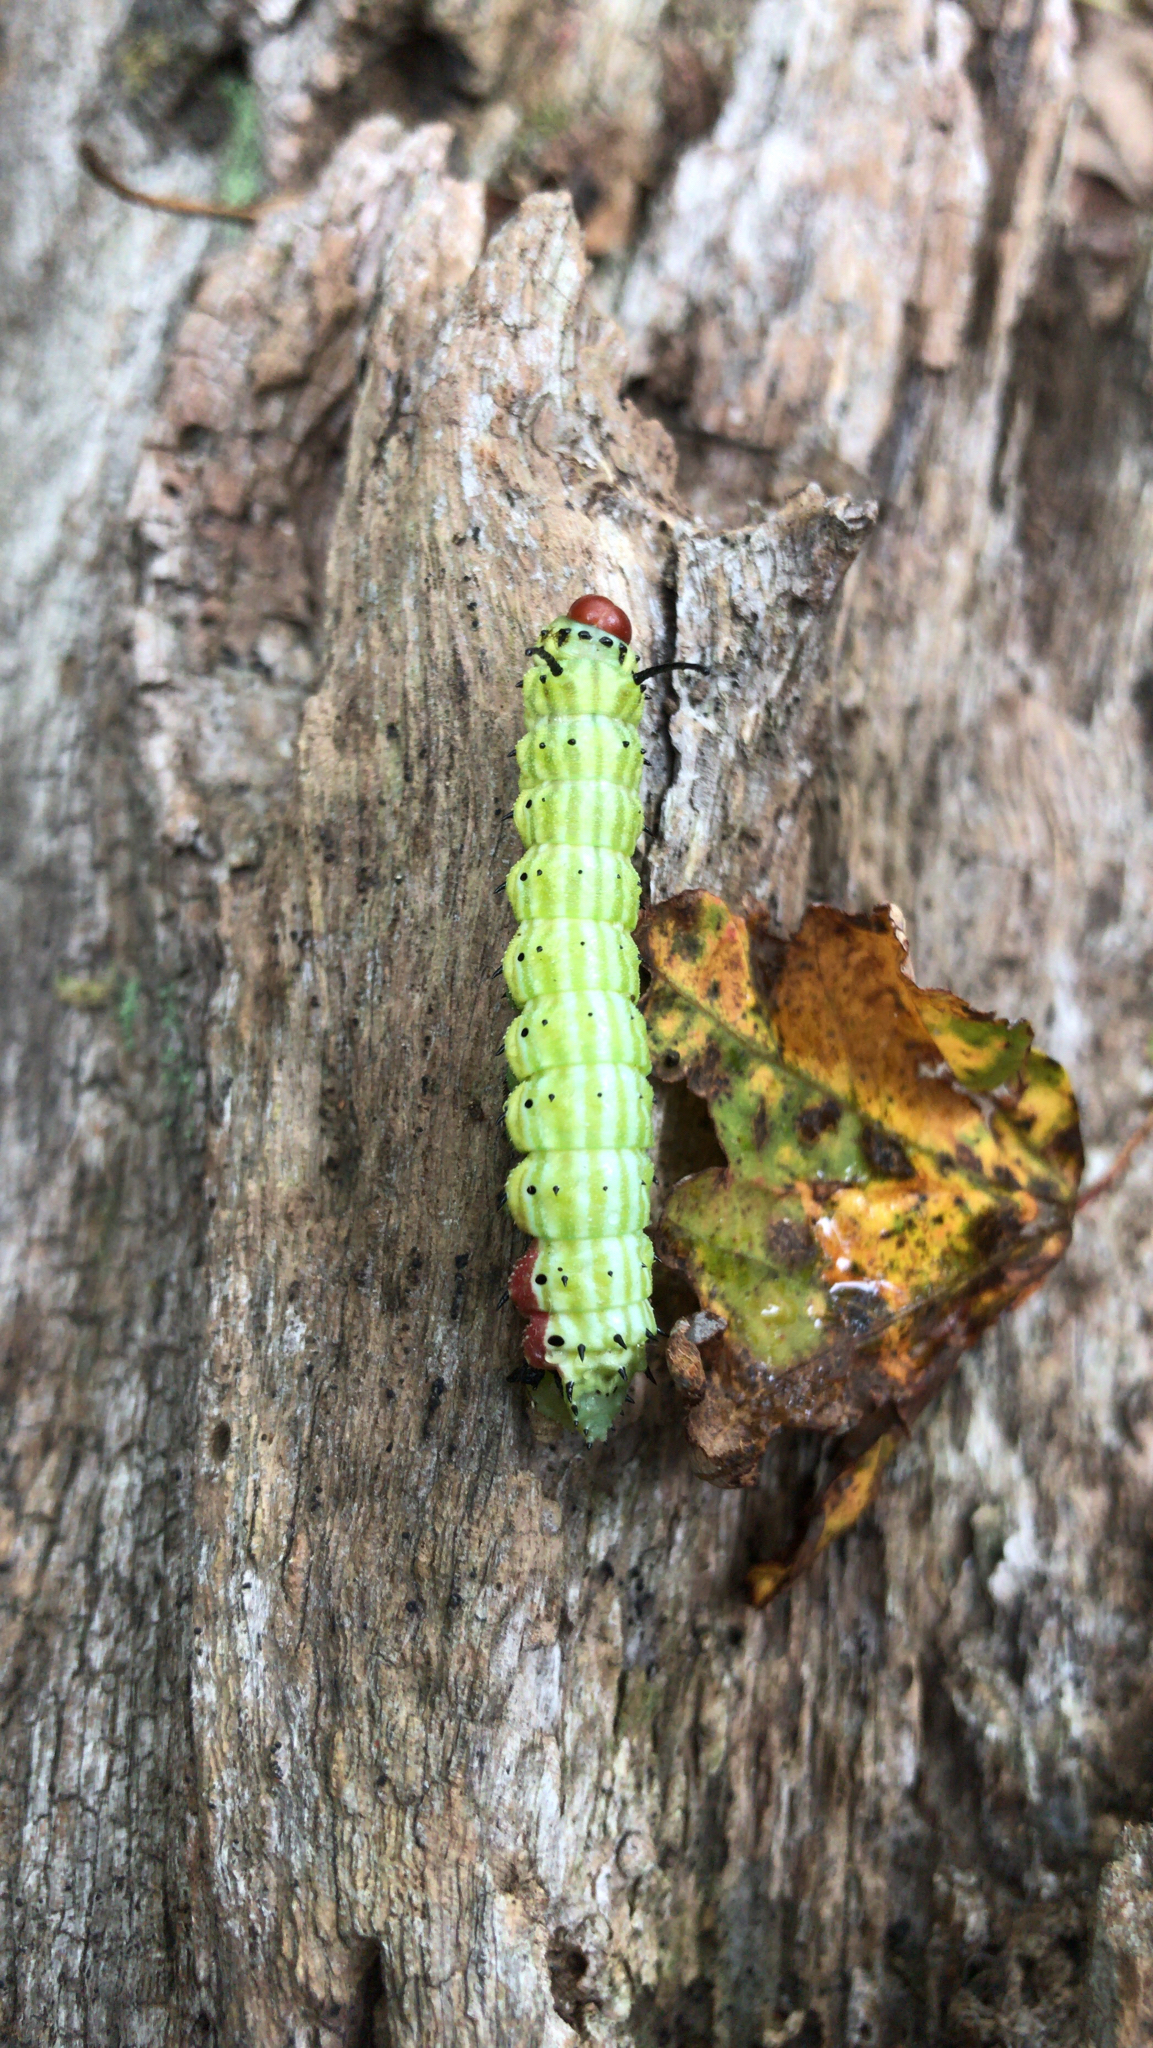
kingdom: Animalia
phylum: Arthropoda
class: Insecta
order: Lepidoptera
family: Saturniidae
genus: Dryocampa
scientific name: Dryocampa rubicunda
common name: Rosy maple moth
